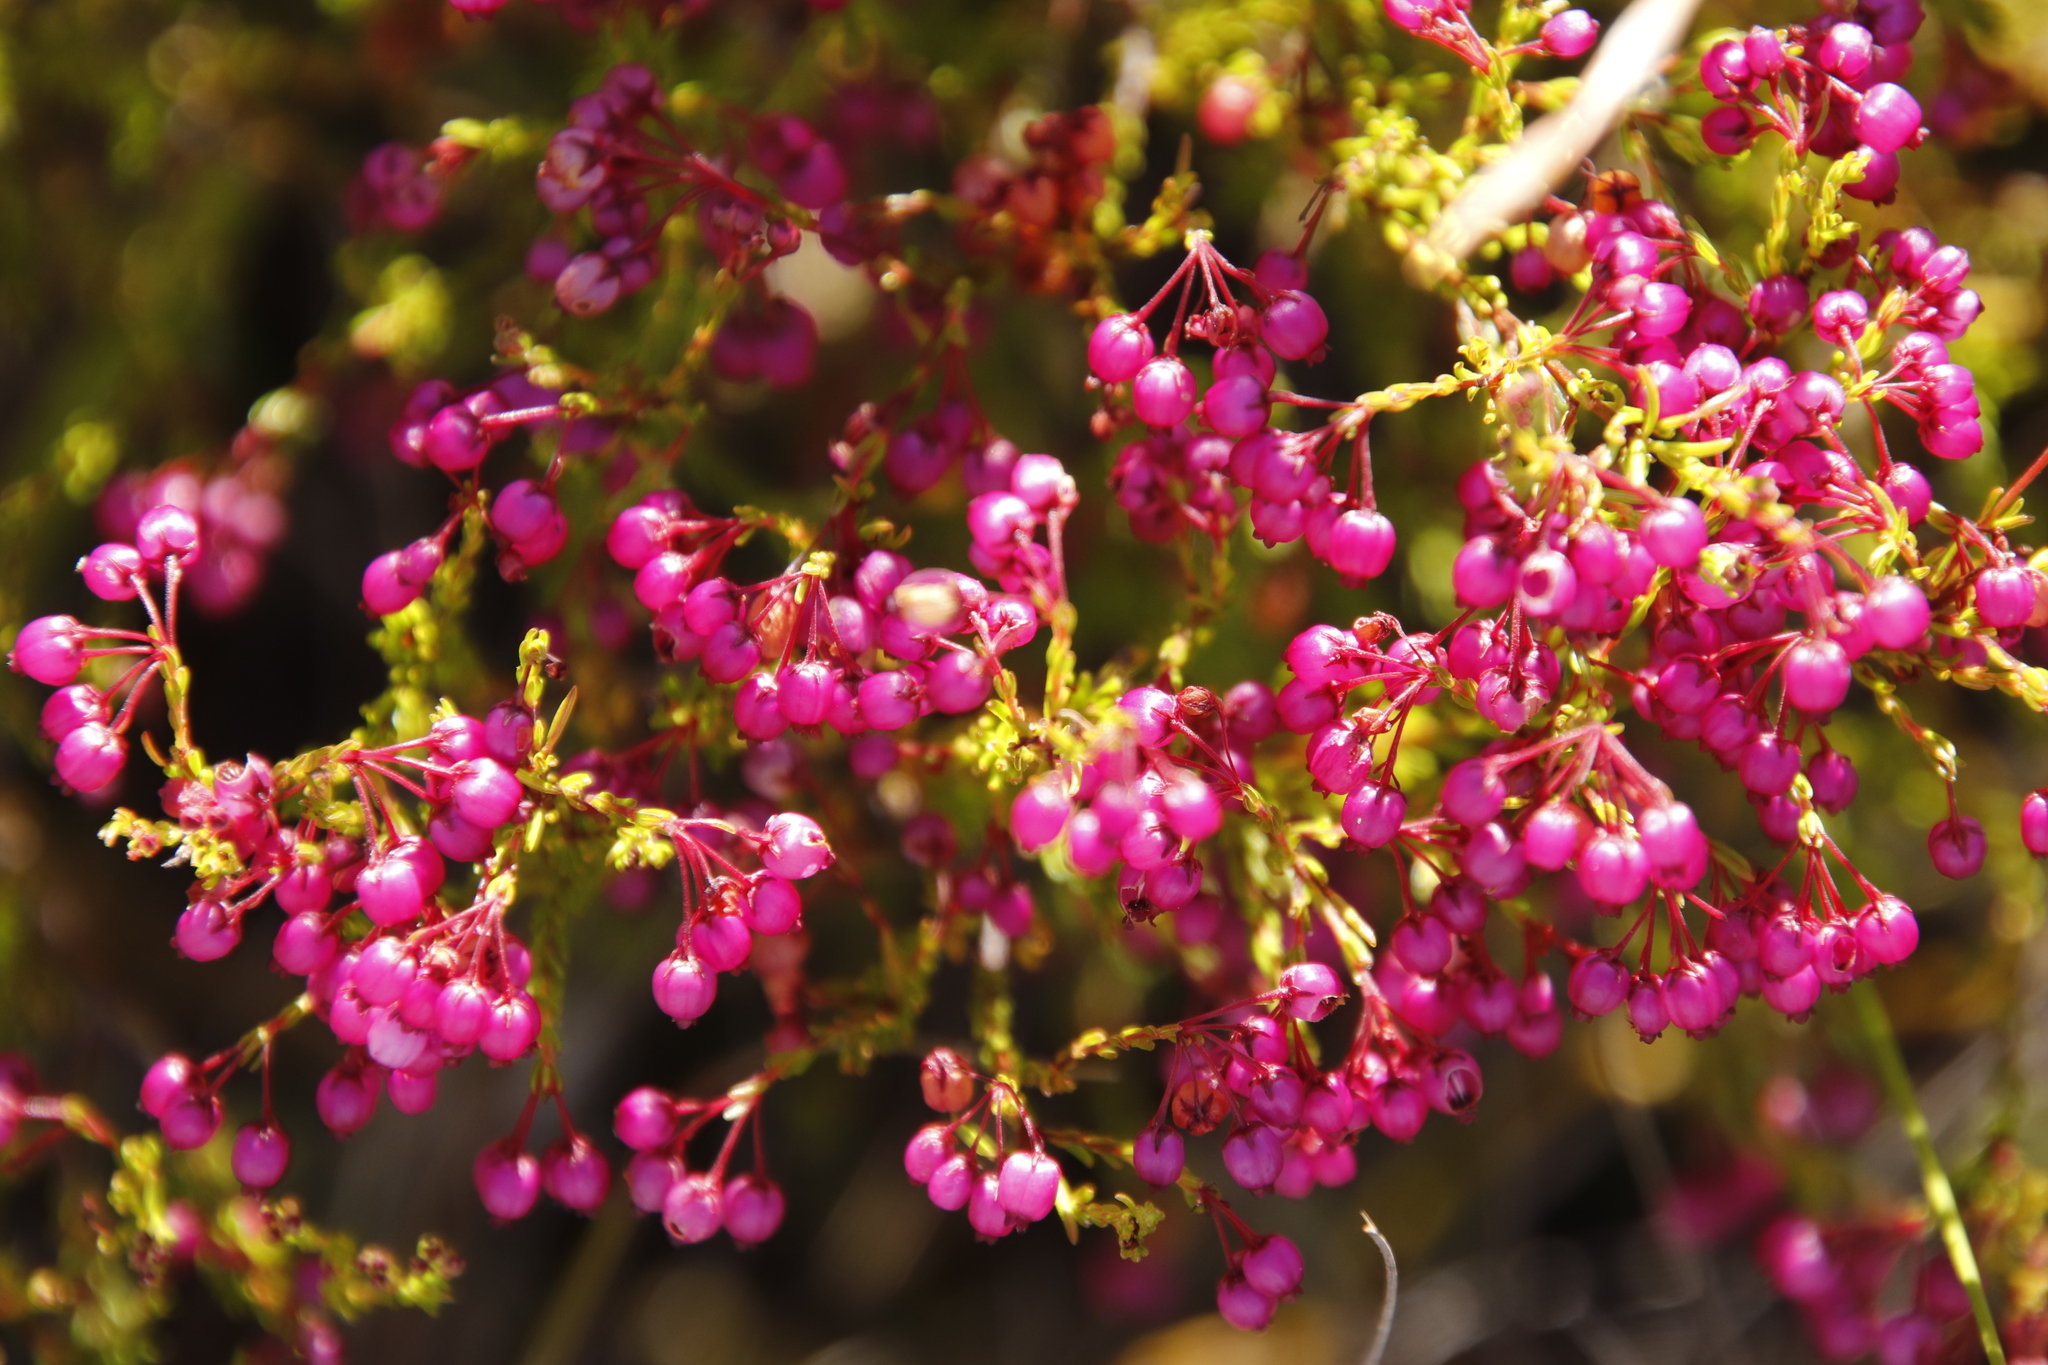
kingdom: Plantae
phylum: Tracheophyta
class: Magnoliopsida
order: Ericales
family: Ericaceae
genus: Erica
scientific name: Erica multumbellifera
